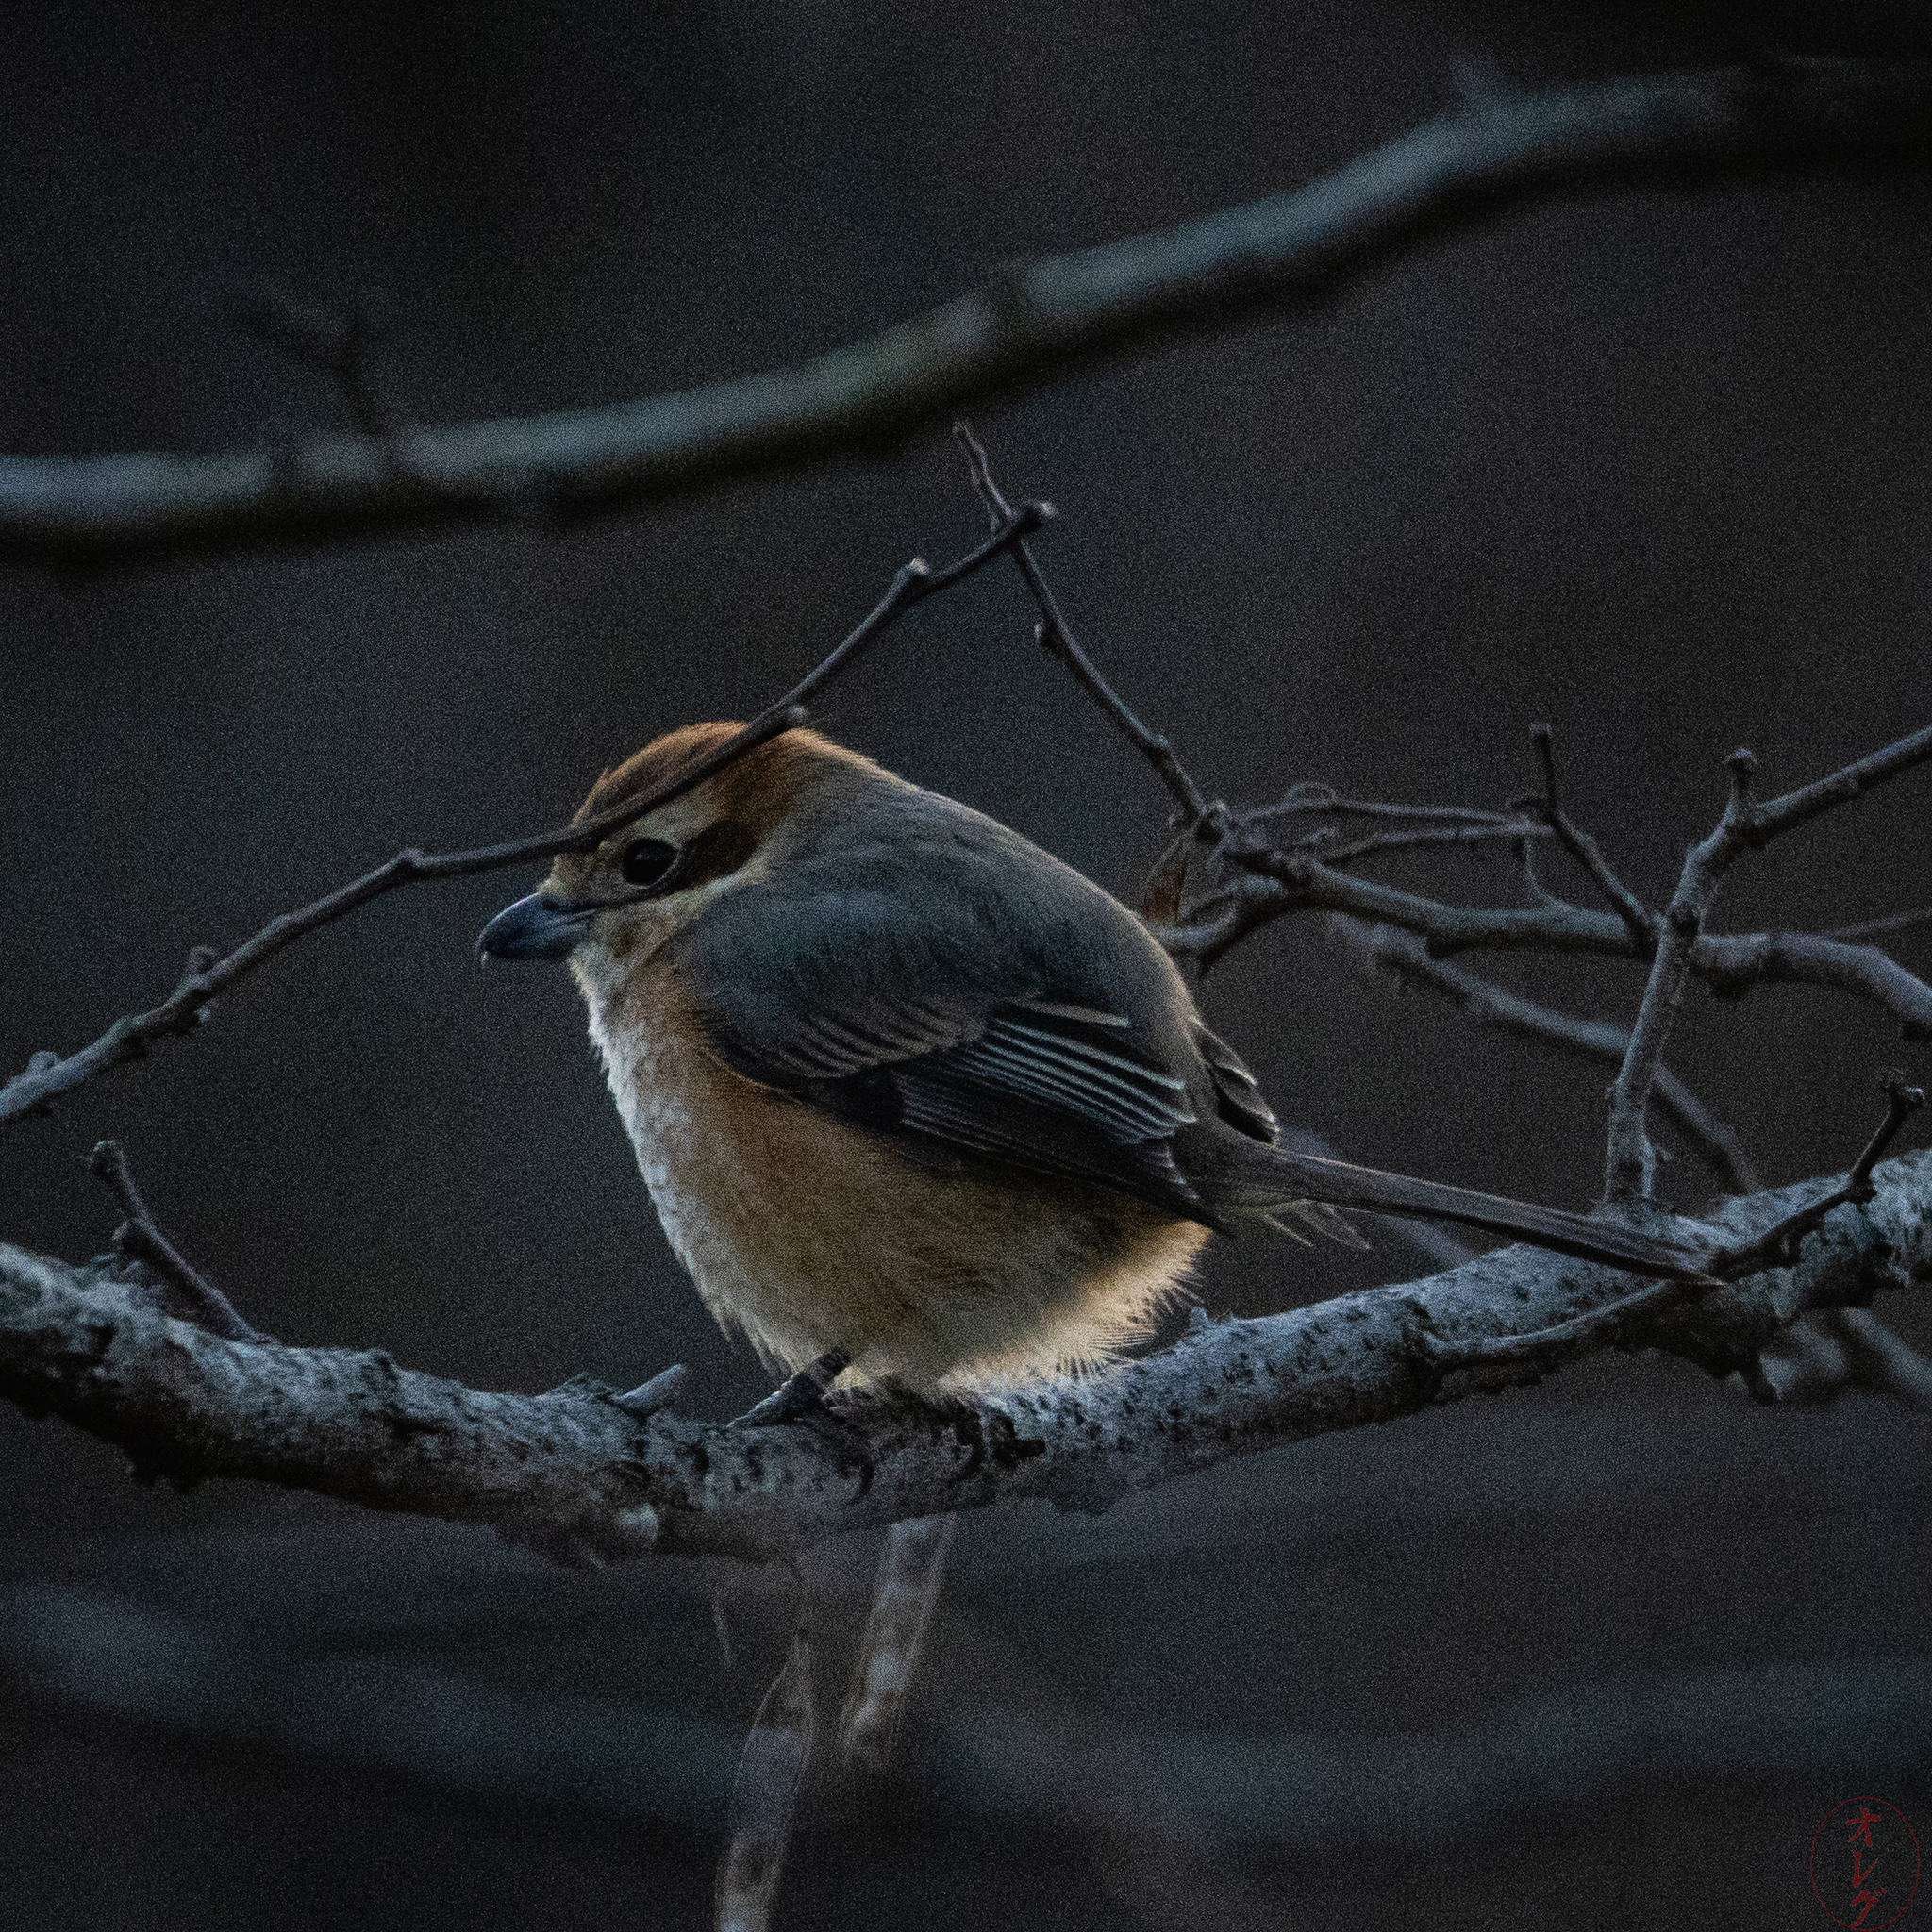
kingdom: Animalia
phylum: Chordata
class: Aves
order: Passeriformes
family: Laniidae
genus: Lanius
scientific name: Lanius bucephalus
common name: Bull-headed shrike
